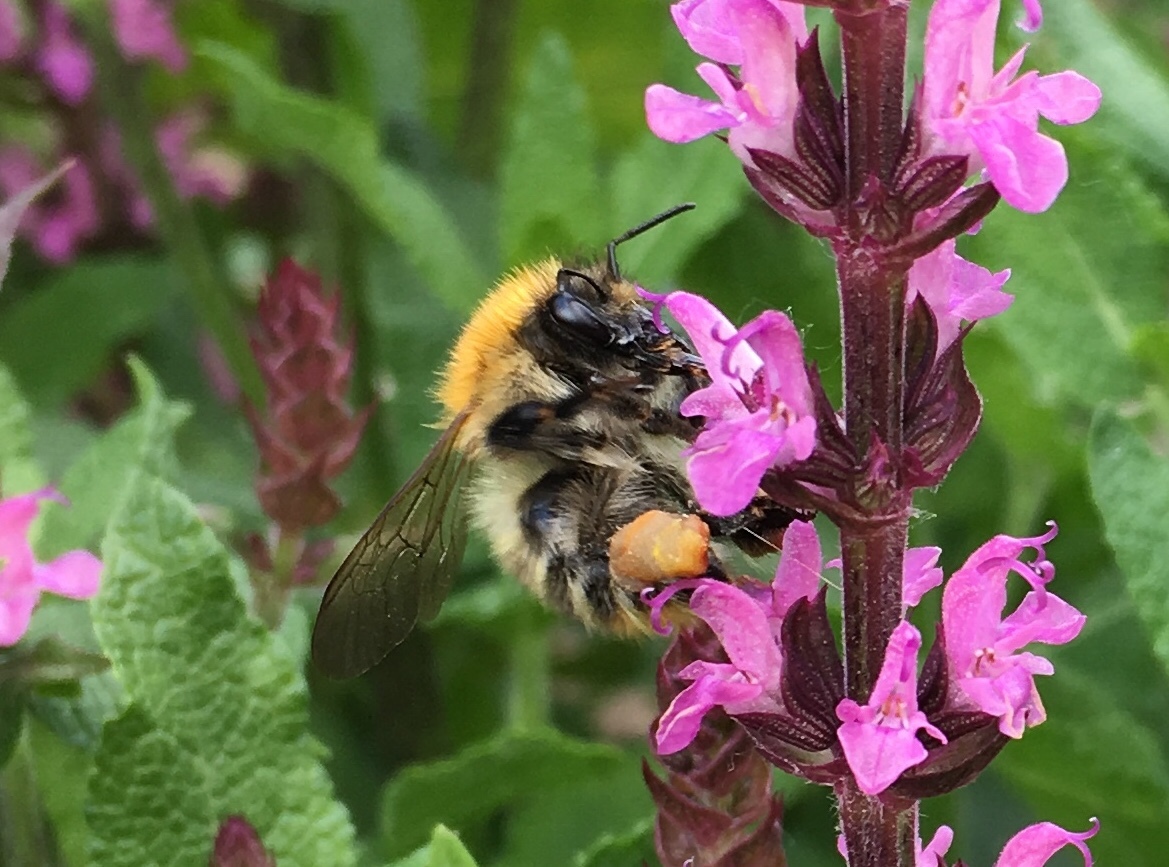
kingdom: Animalia
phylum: Arthropoda
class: Insecta
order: Hymenoptera
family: Apidae
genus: Bombus
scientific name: Bombus pascuorum
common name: Common carder bee
